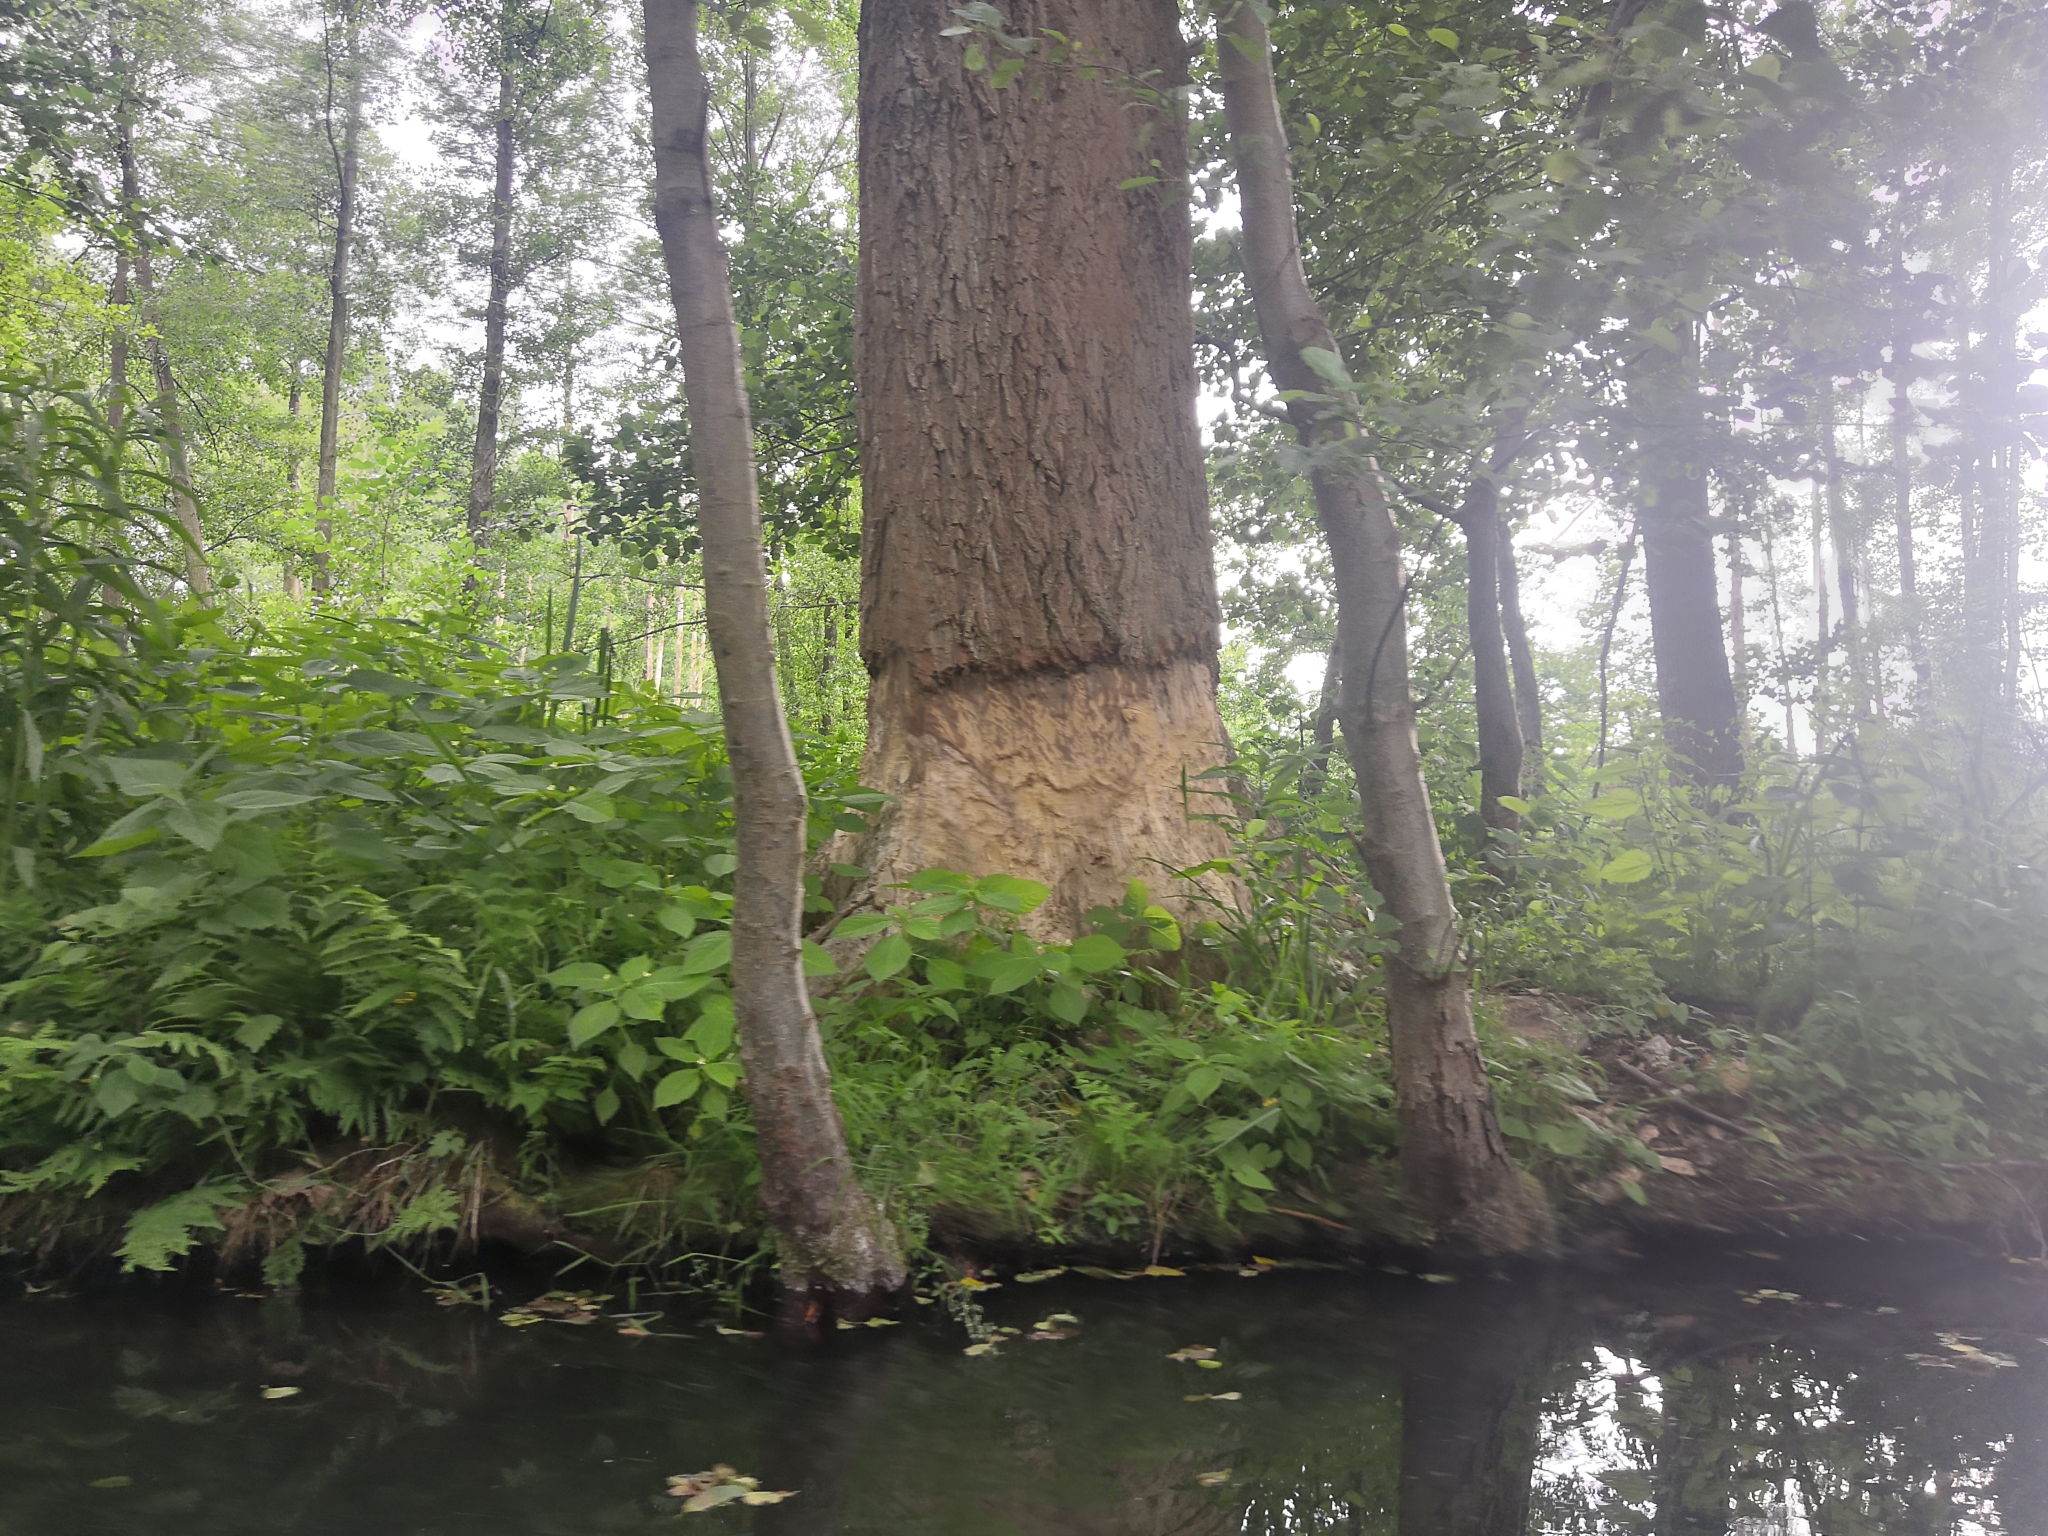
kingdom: Animalia
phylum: Chordata
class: Mammalia
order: Rodentia
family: Castoridae
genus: Castor
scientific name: Castor fiber
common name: Eurasian beaver
